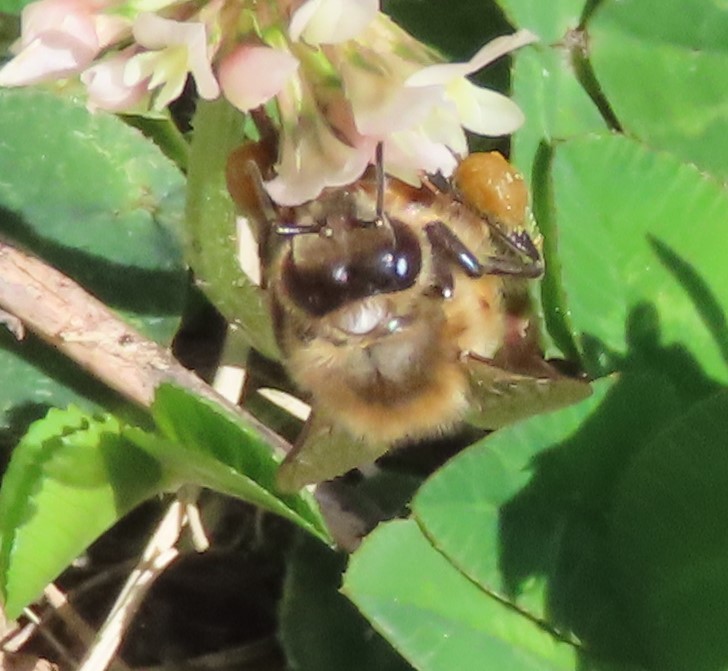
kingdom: Animalia
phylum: Arthropoda
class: Insecta
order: Hymenoptera
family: Apidae
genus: Apis
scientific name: Apis mellifera
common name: Honey bee
